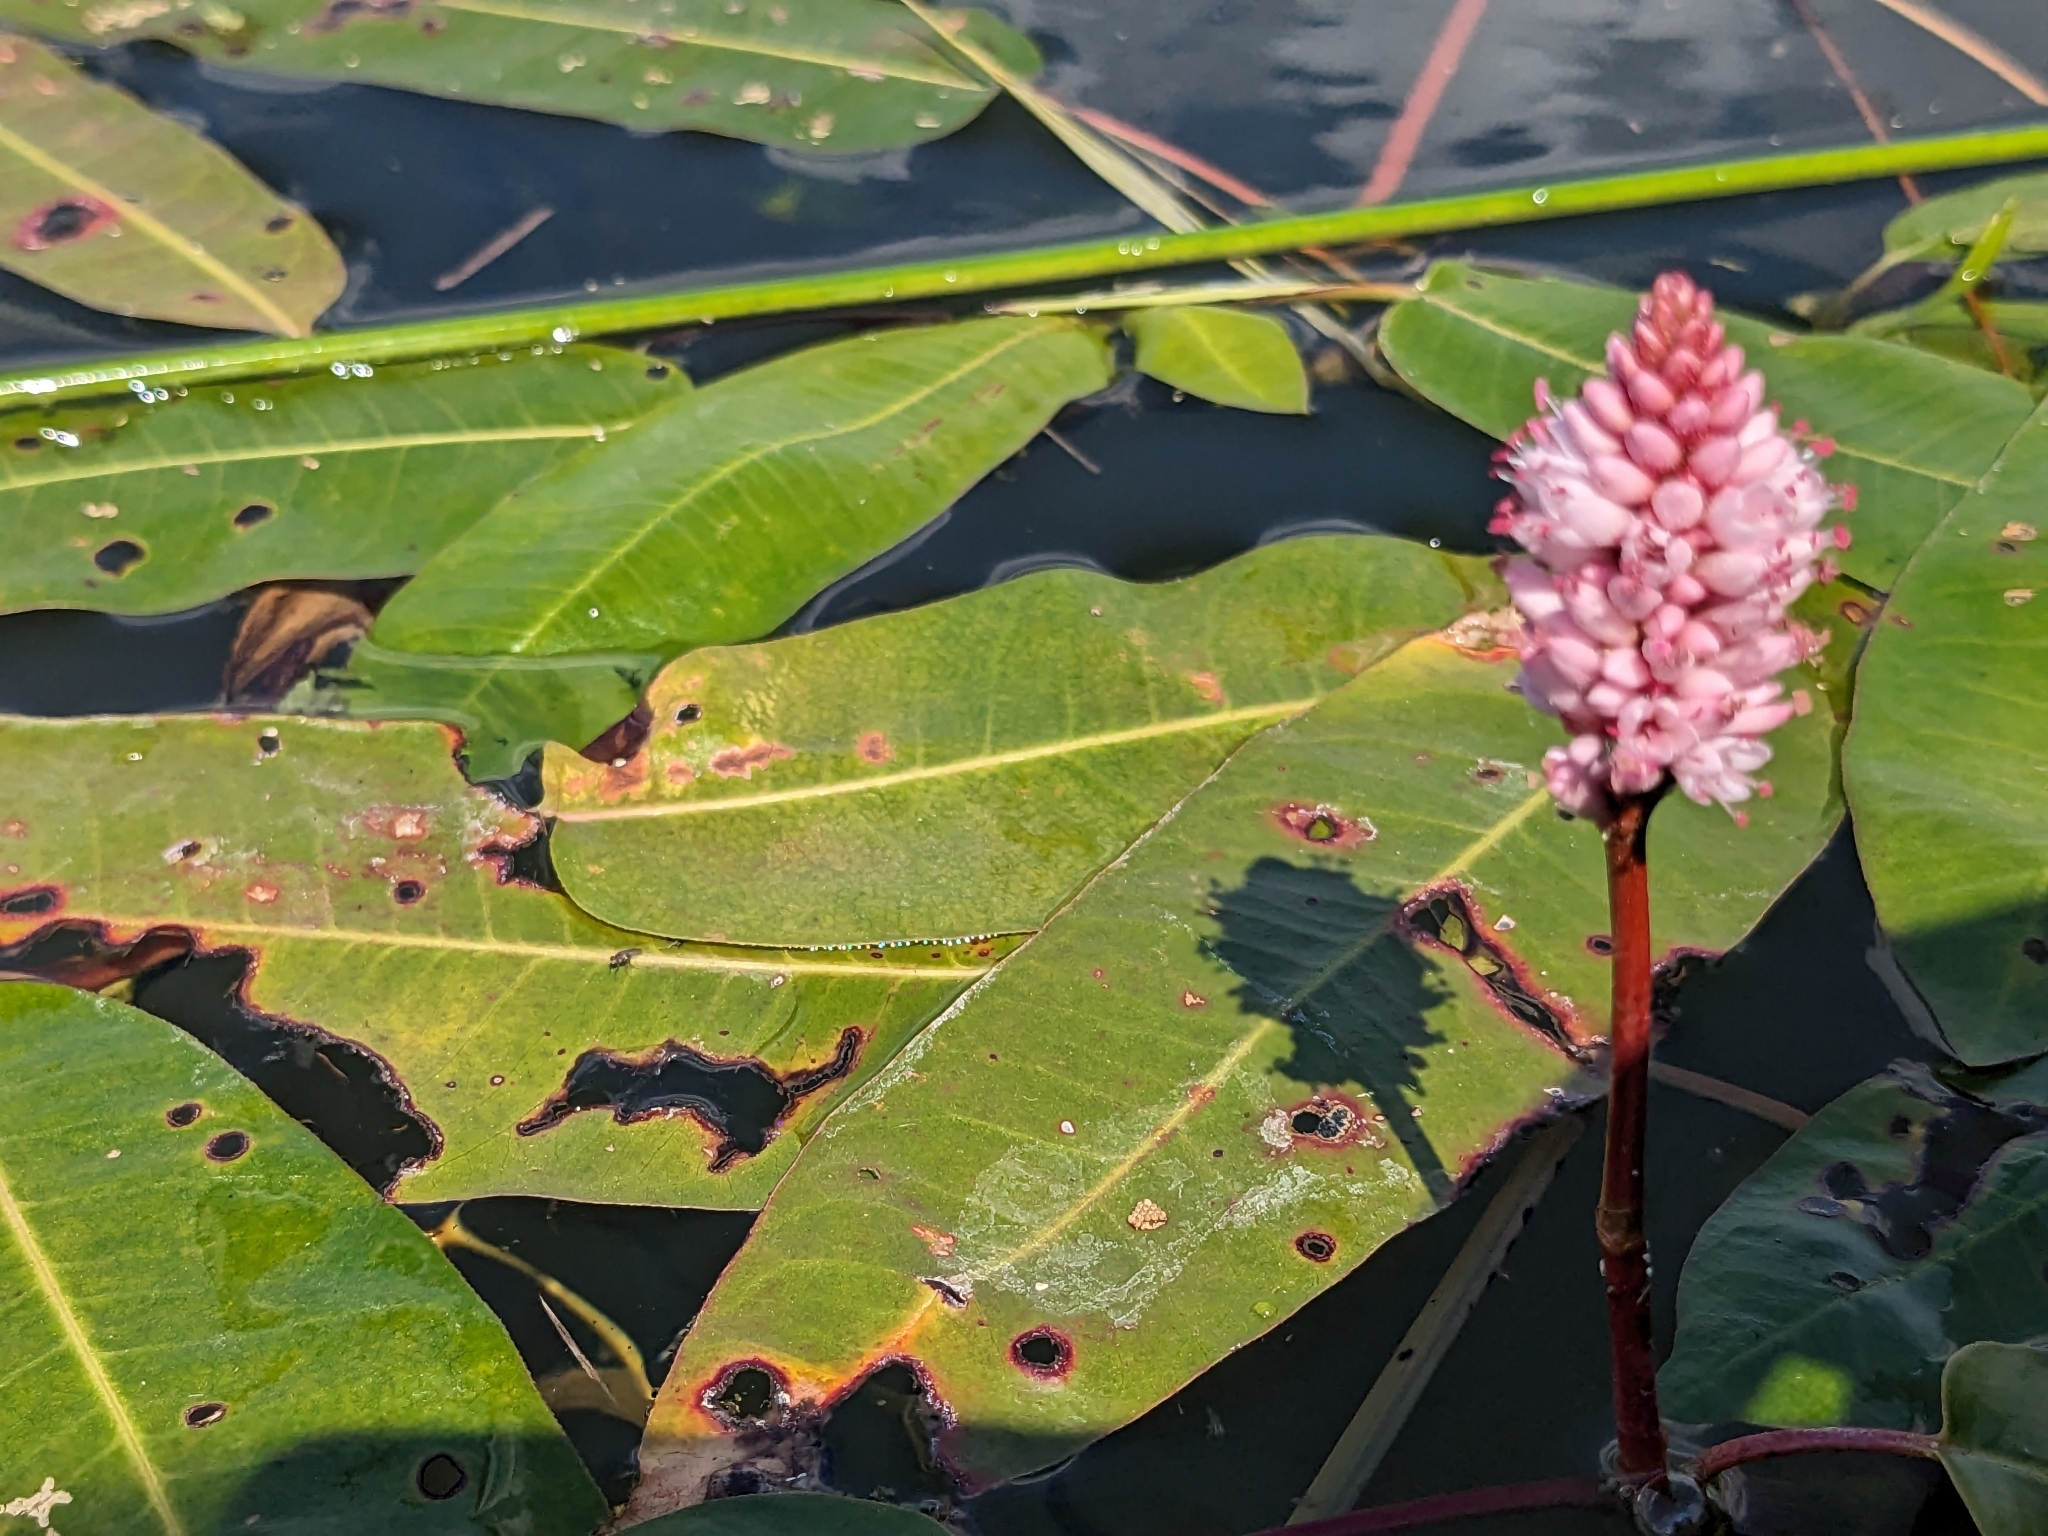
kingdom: Plantae
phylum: Tracheophyta
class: Magnoliopsida
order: Caryophyllales
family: Polygonaceae
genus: Persicaria
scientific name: Persicaria amphibia
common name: Amphibious bistort
